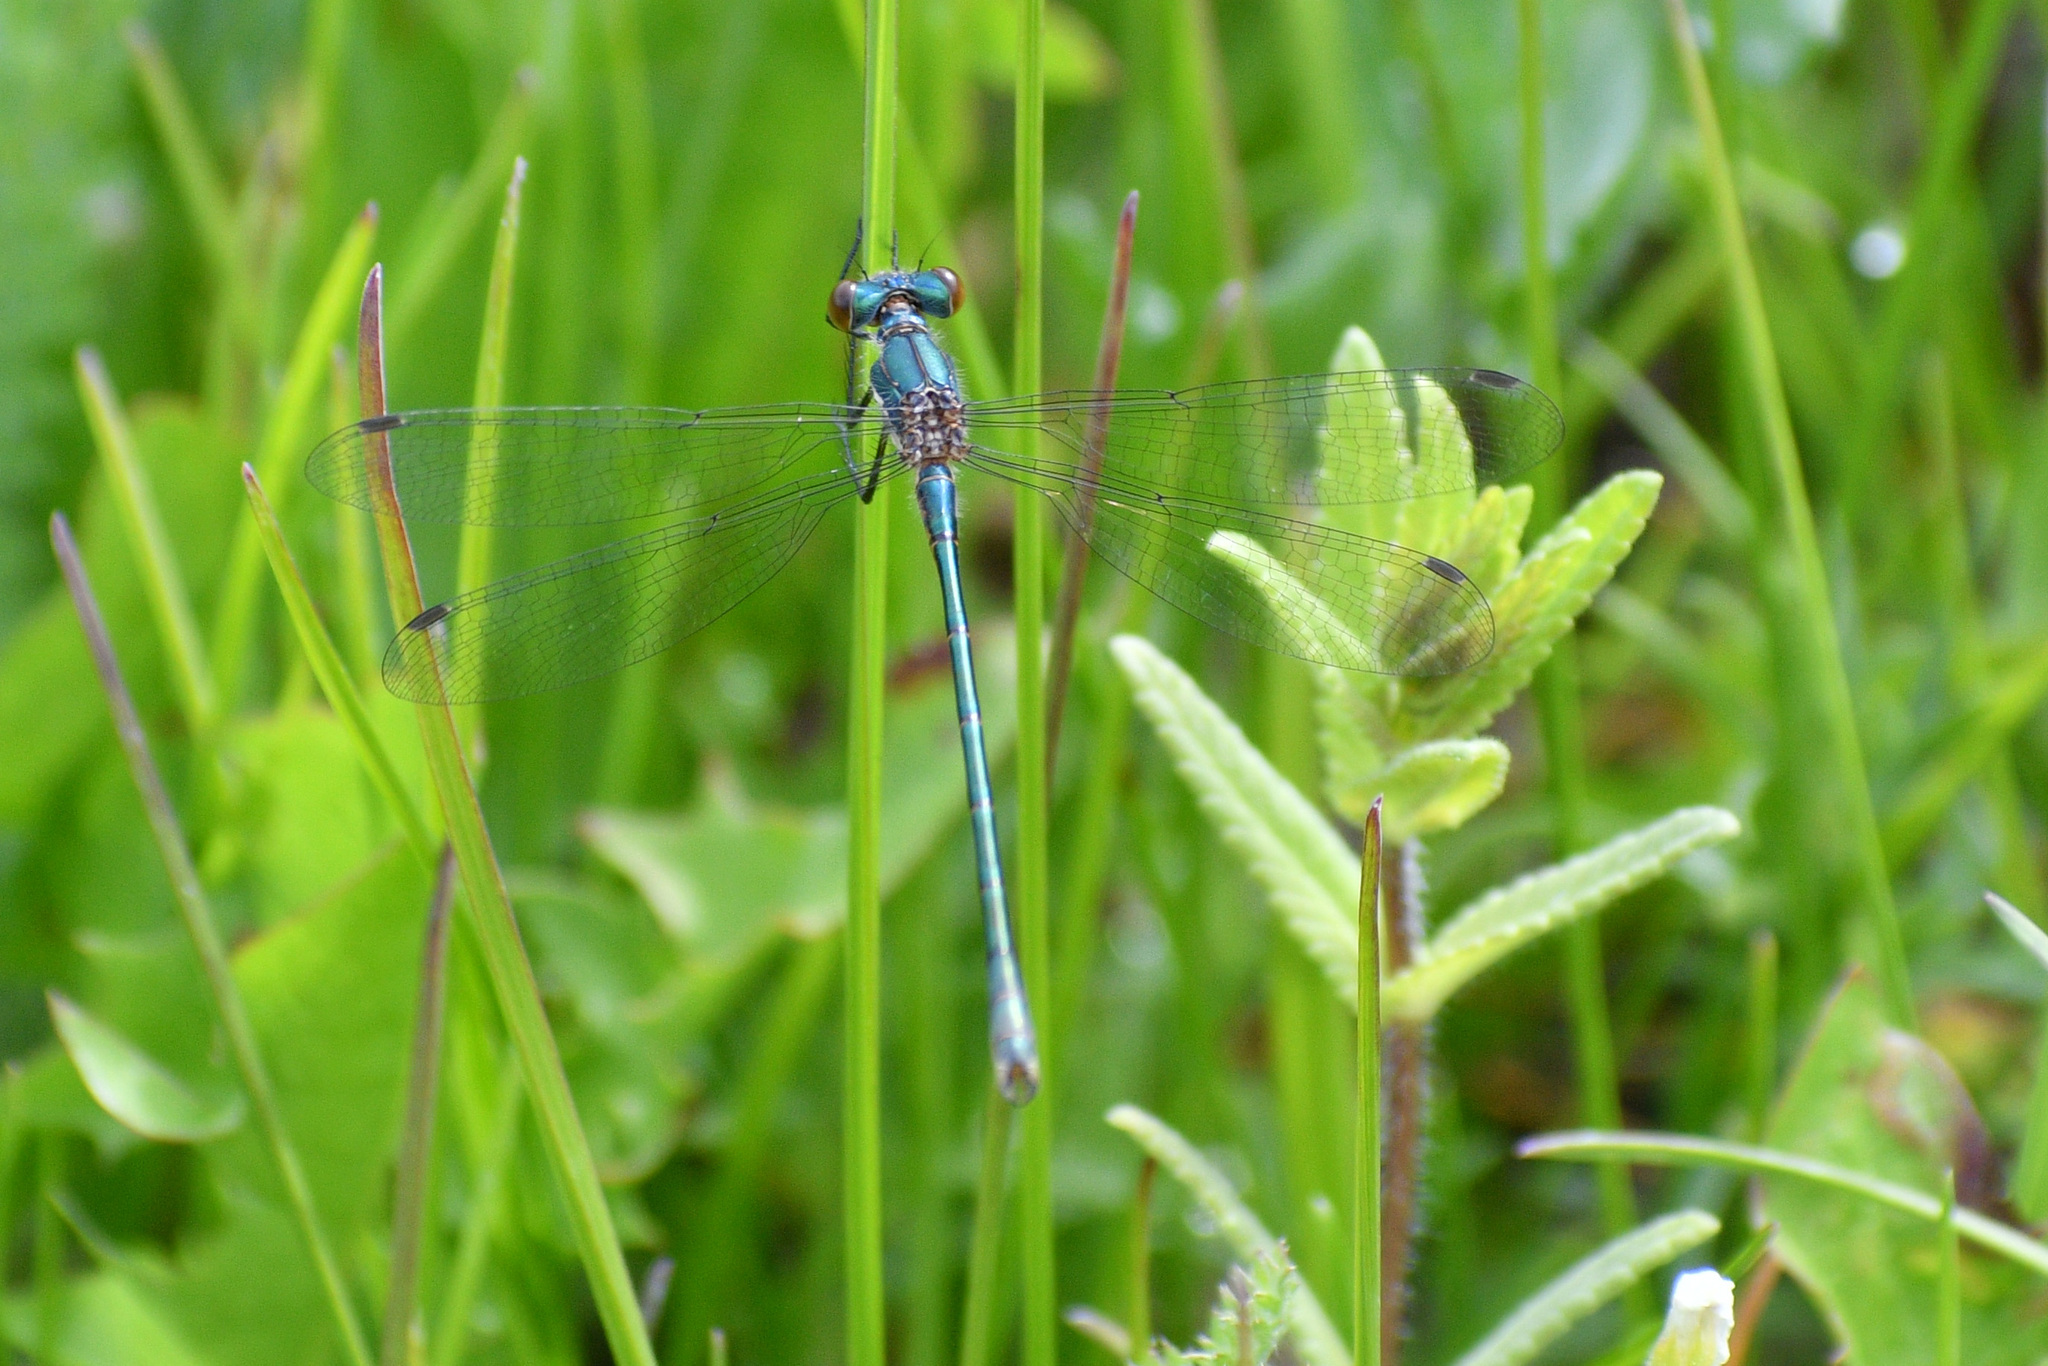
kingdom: Animalia
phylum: Arthropoda
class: Insecta
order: Odonata
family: Lestidae
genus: Lestes
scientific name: Lestes dryas
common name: Scarce emerald damselfly
